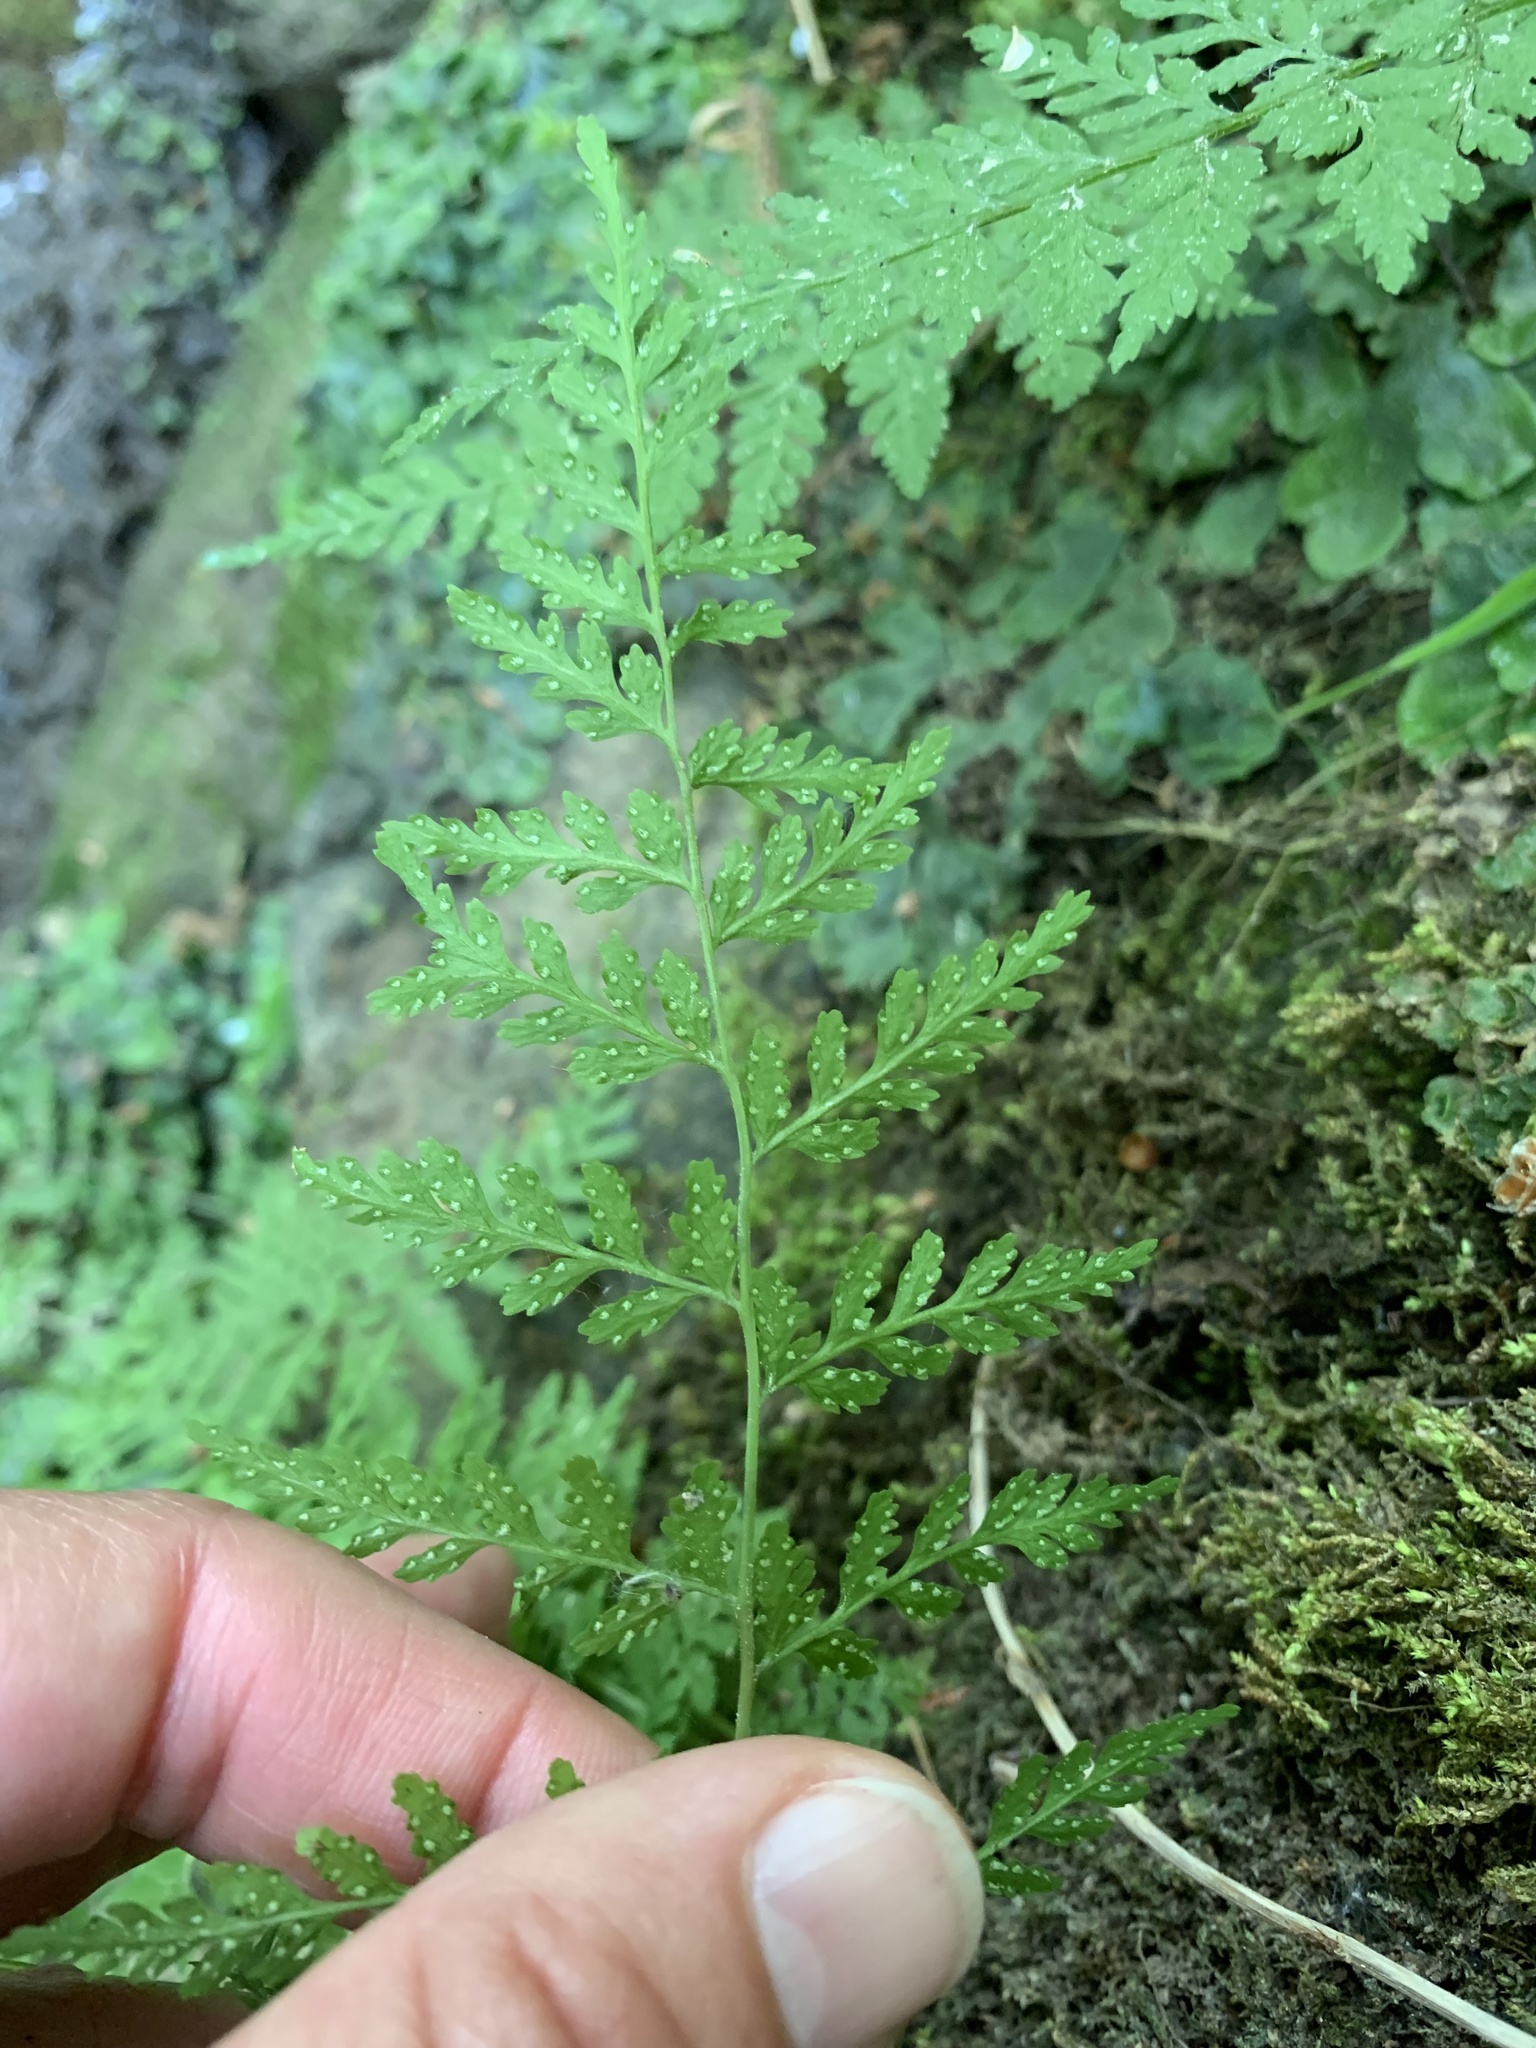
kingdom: Plantae
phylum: Tracheophyta
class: Polypodiopsida
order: Polypodiales
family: Cystopteridaceae
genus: Cystopteris
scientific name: Cystopteris fragilis
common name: Brittle bladder fern
